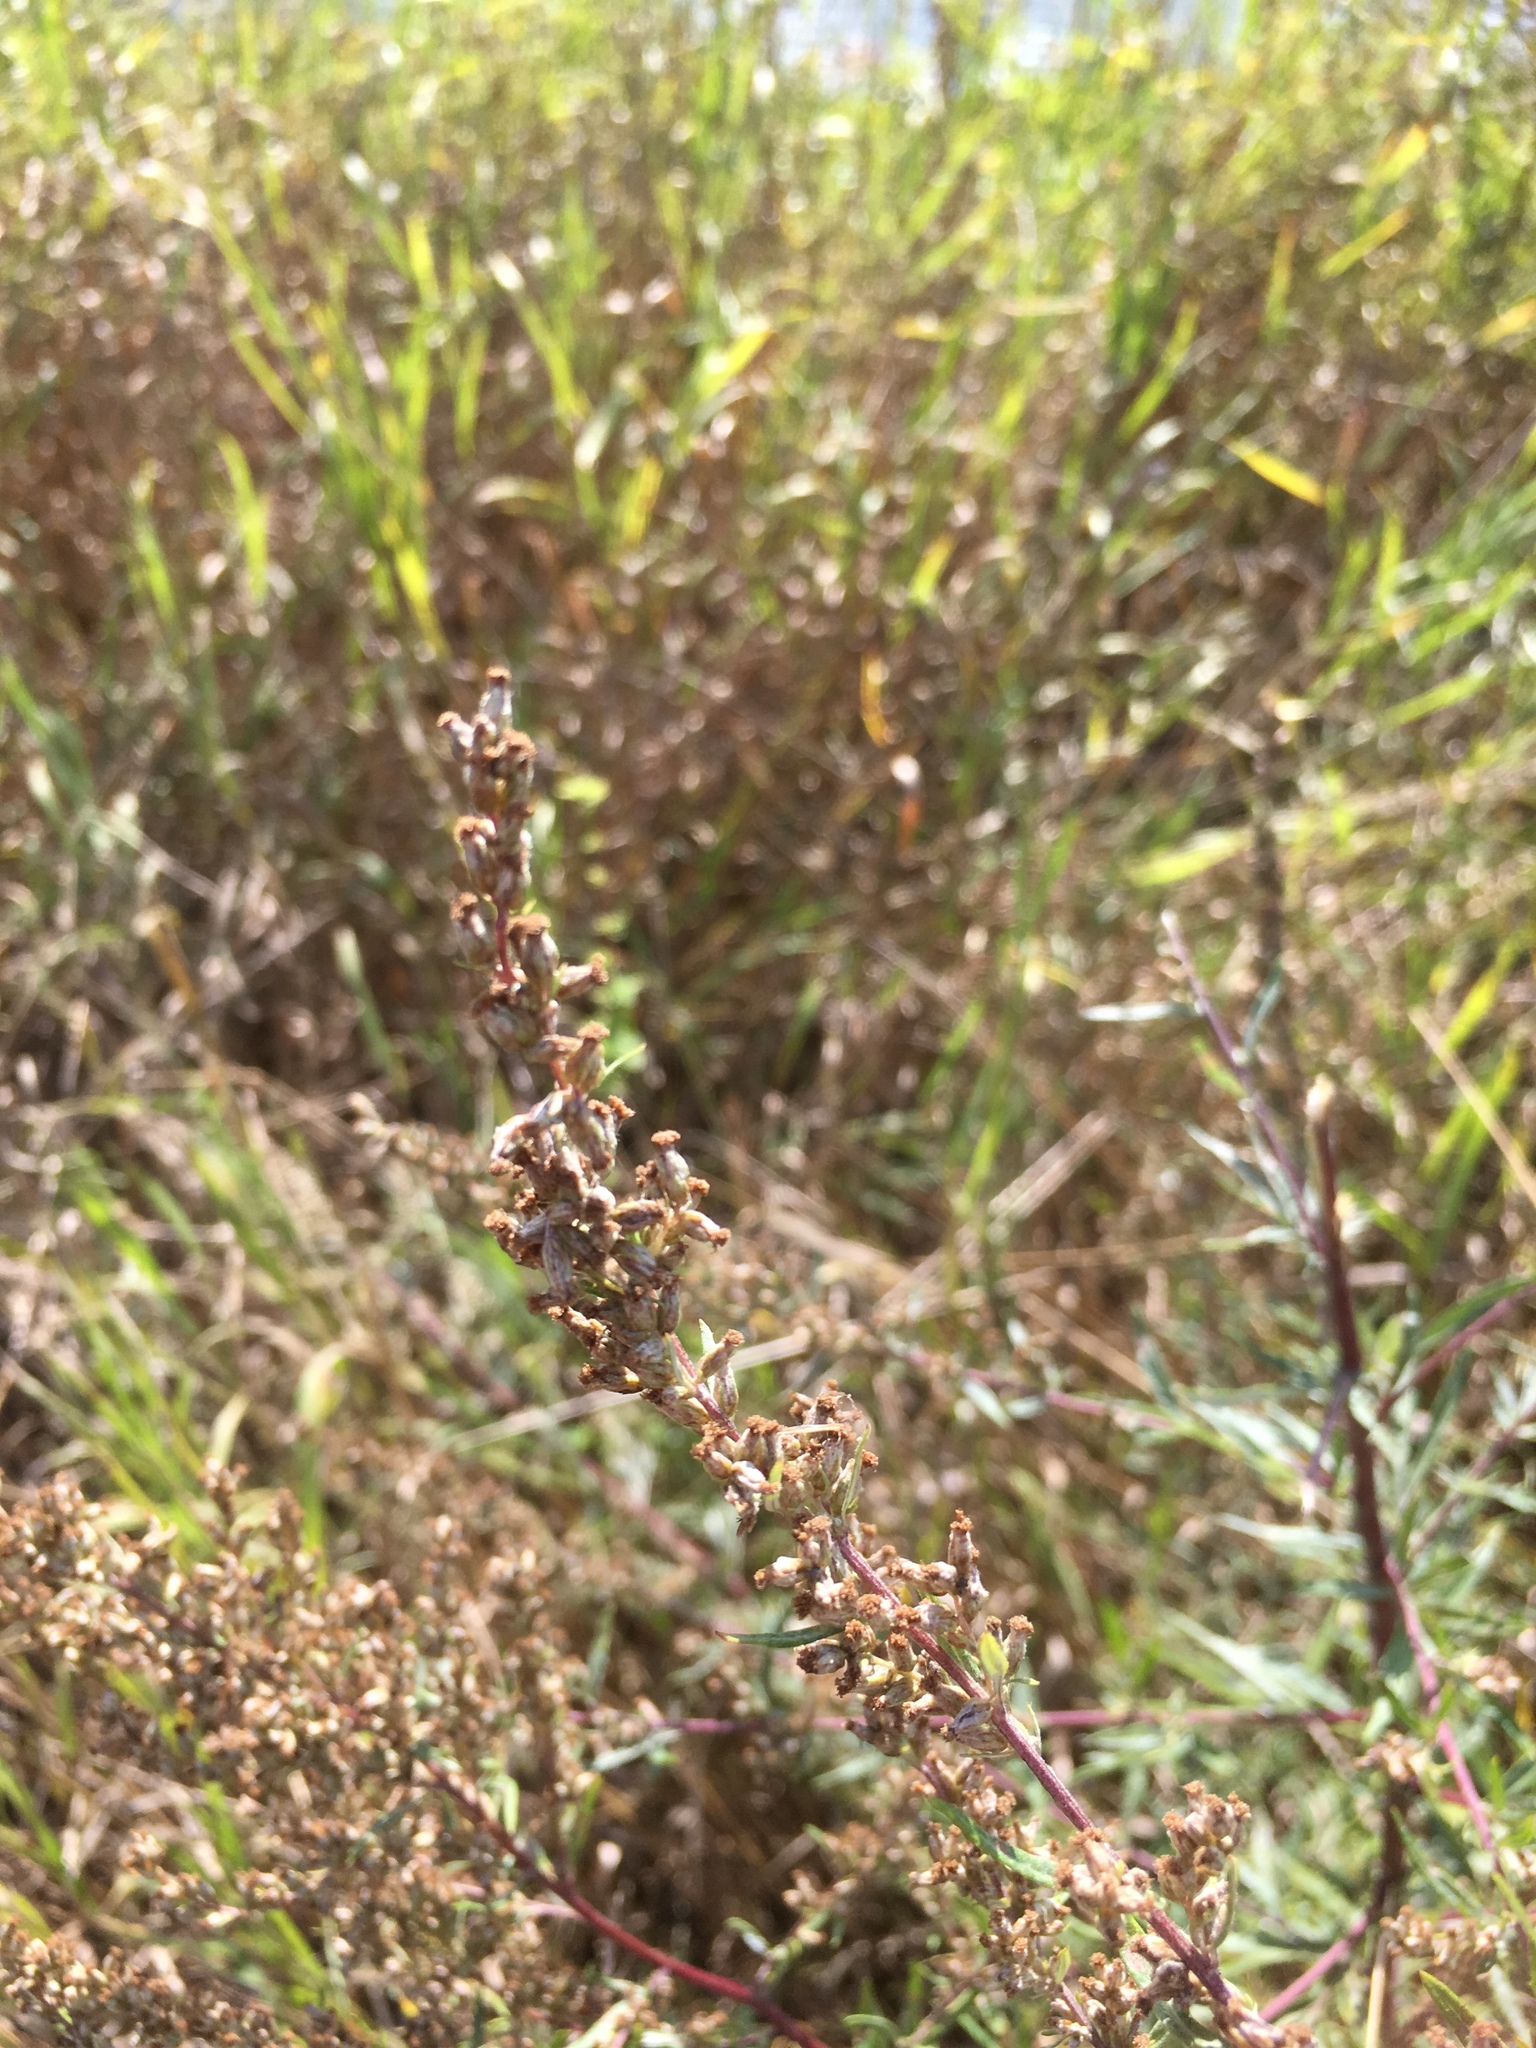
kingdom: Plantae
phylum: Tracheophyta
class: Magnoliopsida
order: Asterales
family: Asteraceae
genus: Artemisia
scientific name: Artemisia vulgaris
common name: Mugwort
